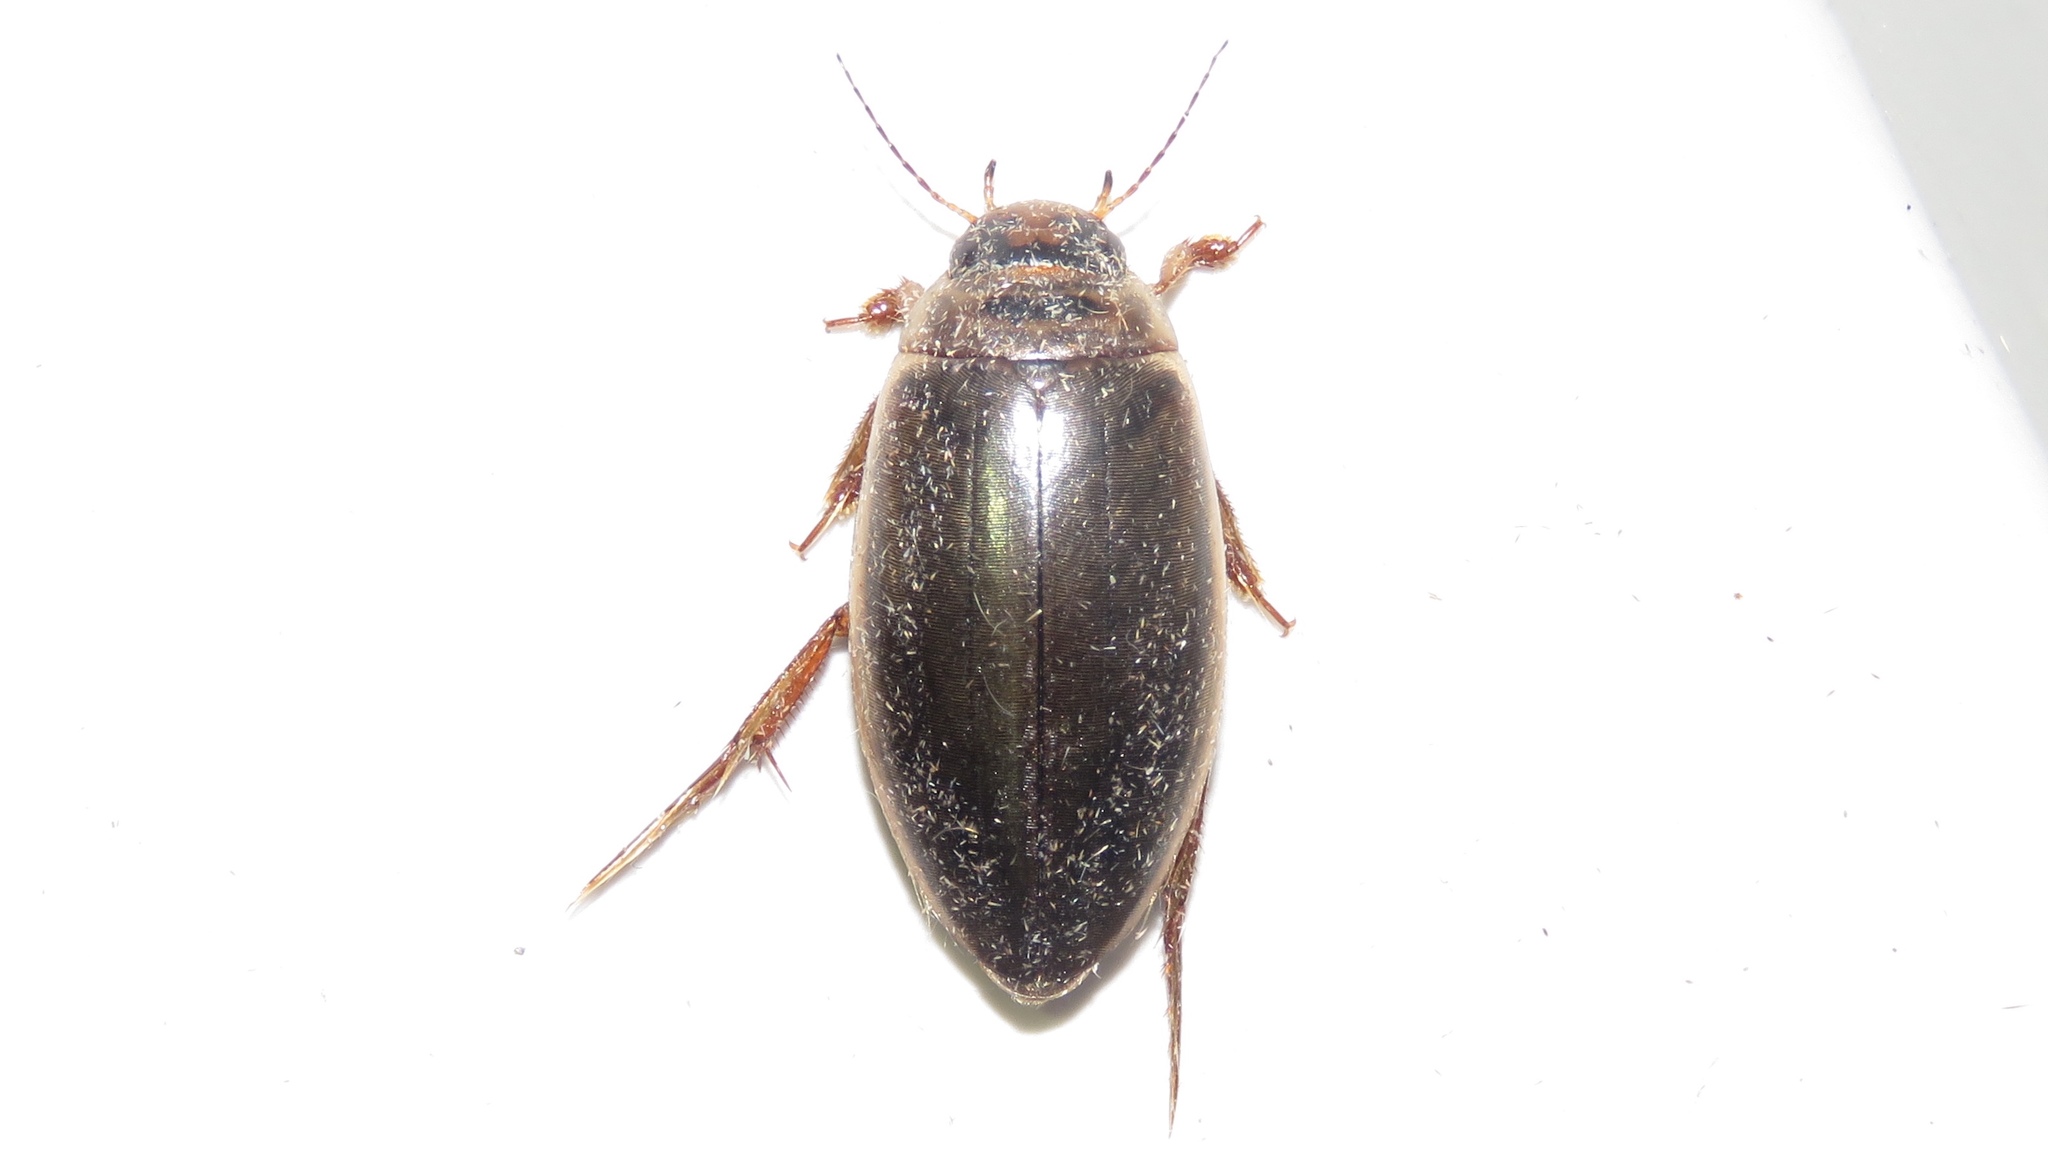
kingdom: Animalia
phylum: Arthropoda
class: Insecta
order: Coleoptera
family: Dytiscidae
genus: Colymbetes
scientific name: Colymbetes sculptilis
